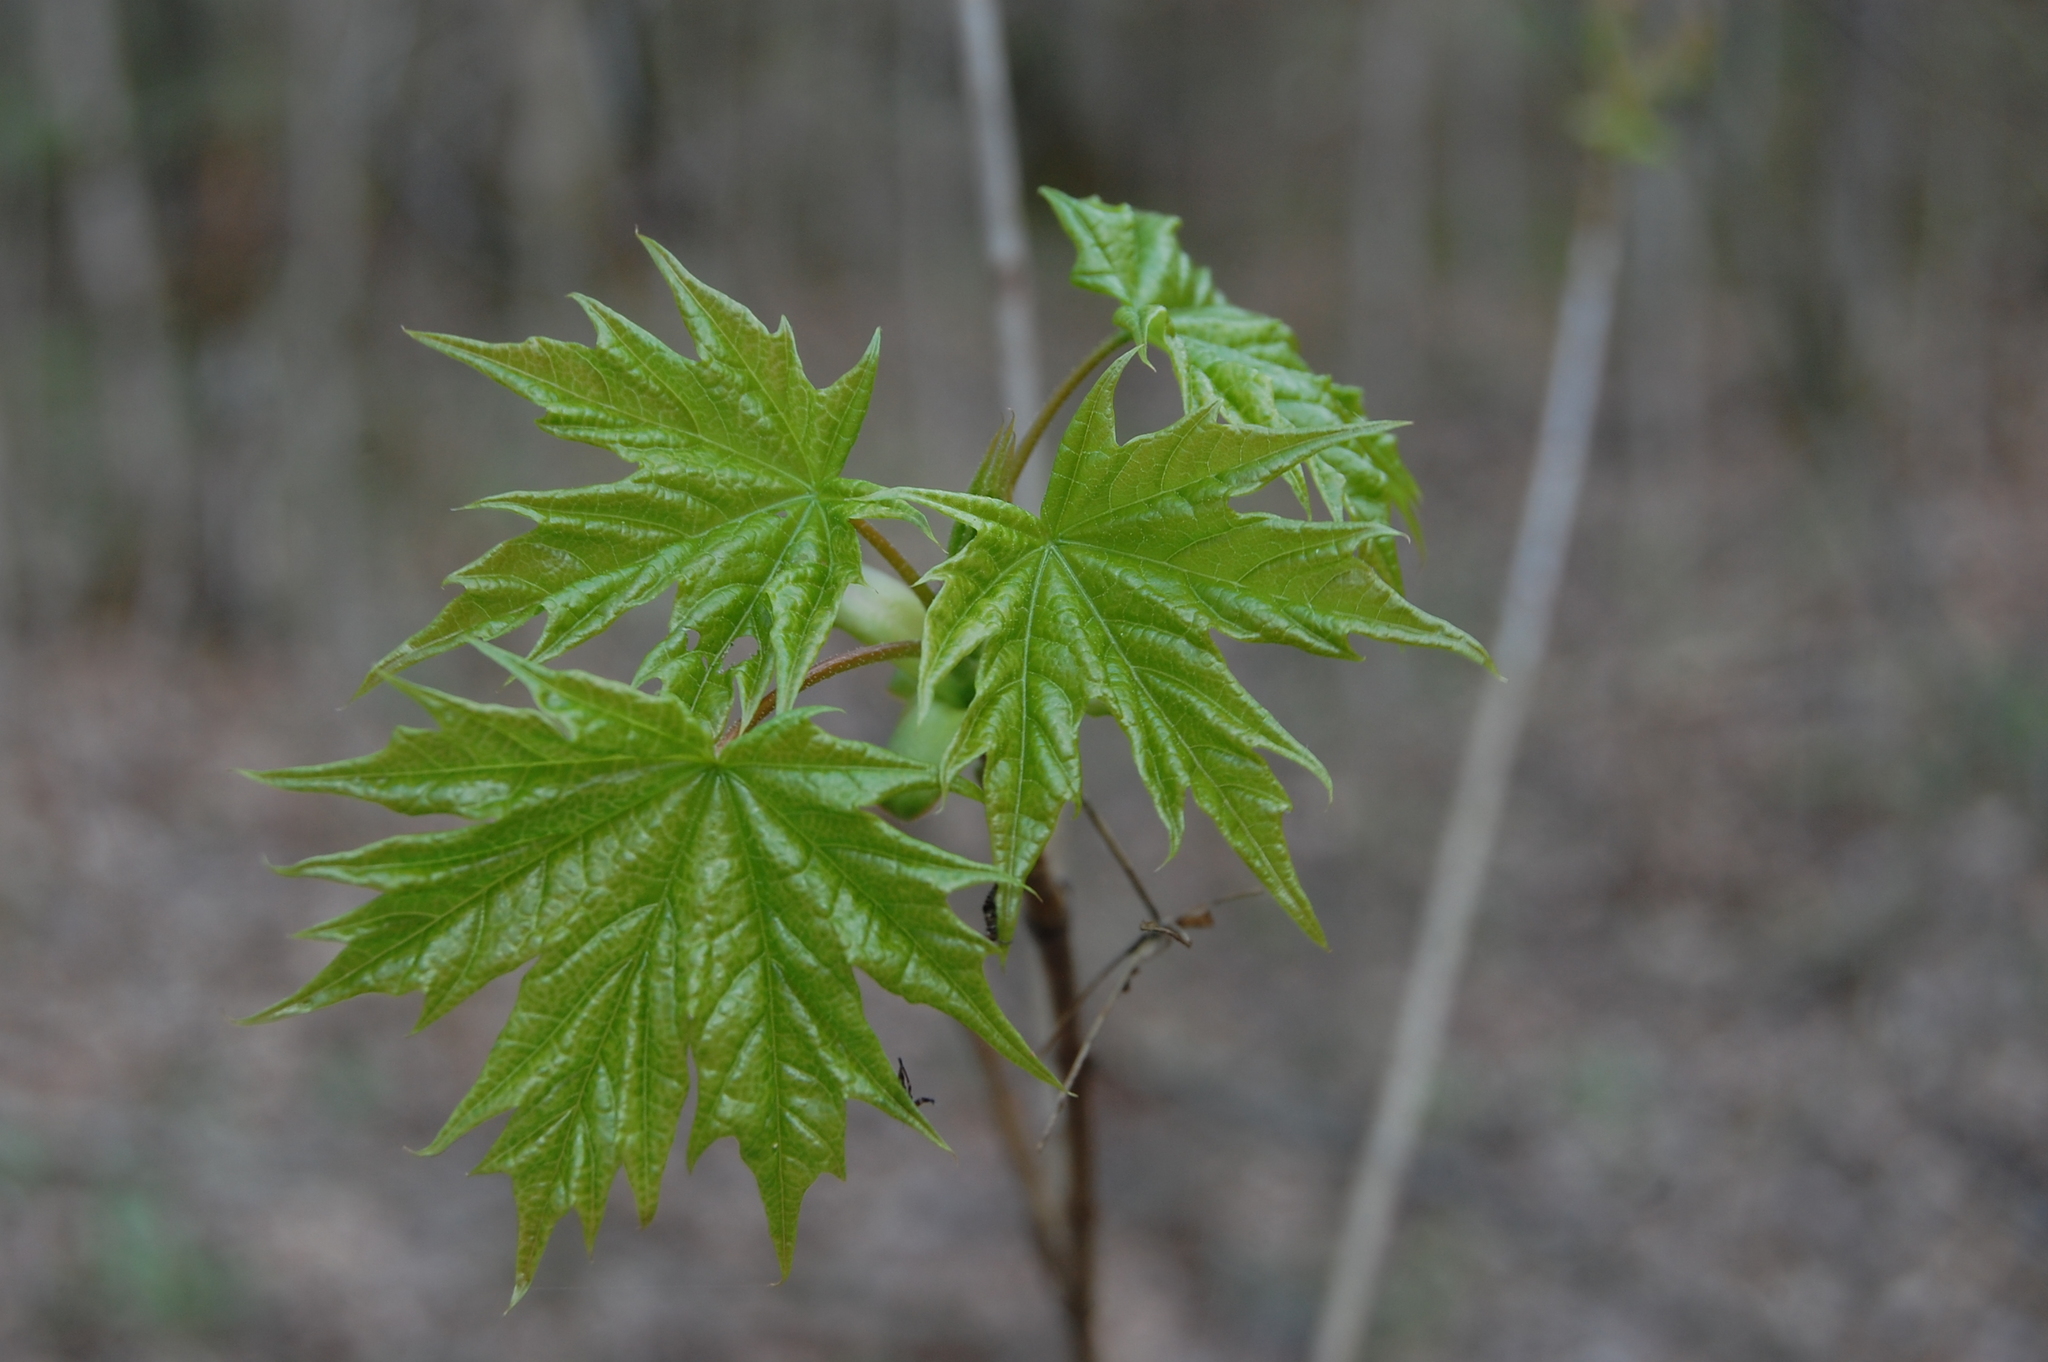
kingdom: Plantae
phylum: Tracheophyta
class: Magnoliopsida
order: Sapindales
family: Sapindaceae
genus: Acer
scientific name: Acer platanoides
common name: Norway maple
